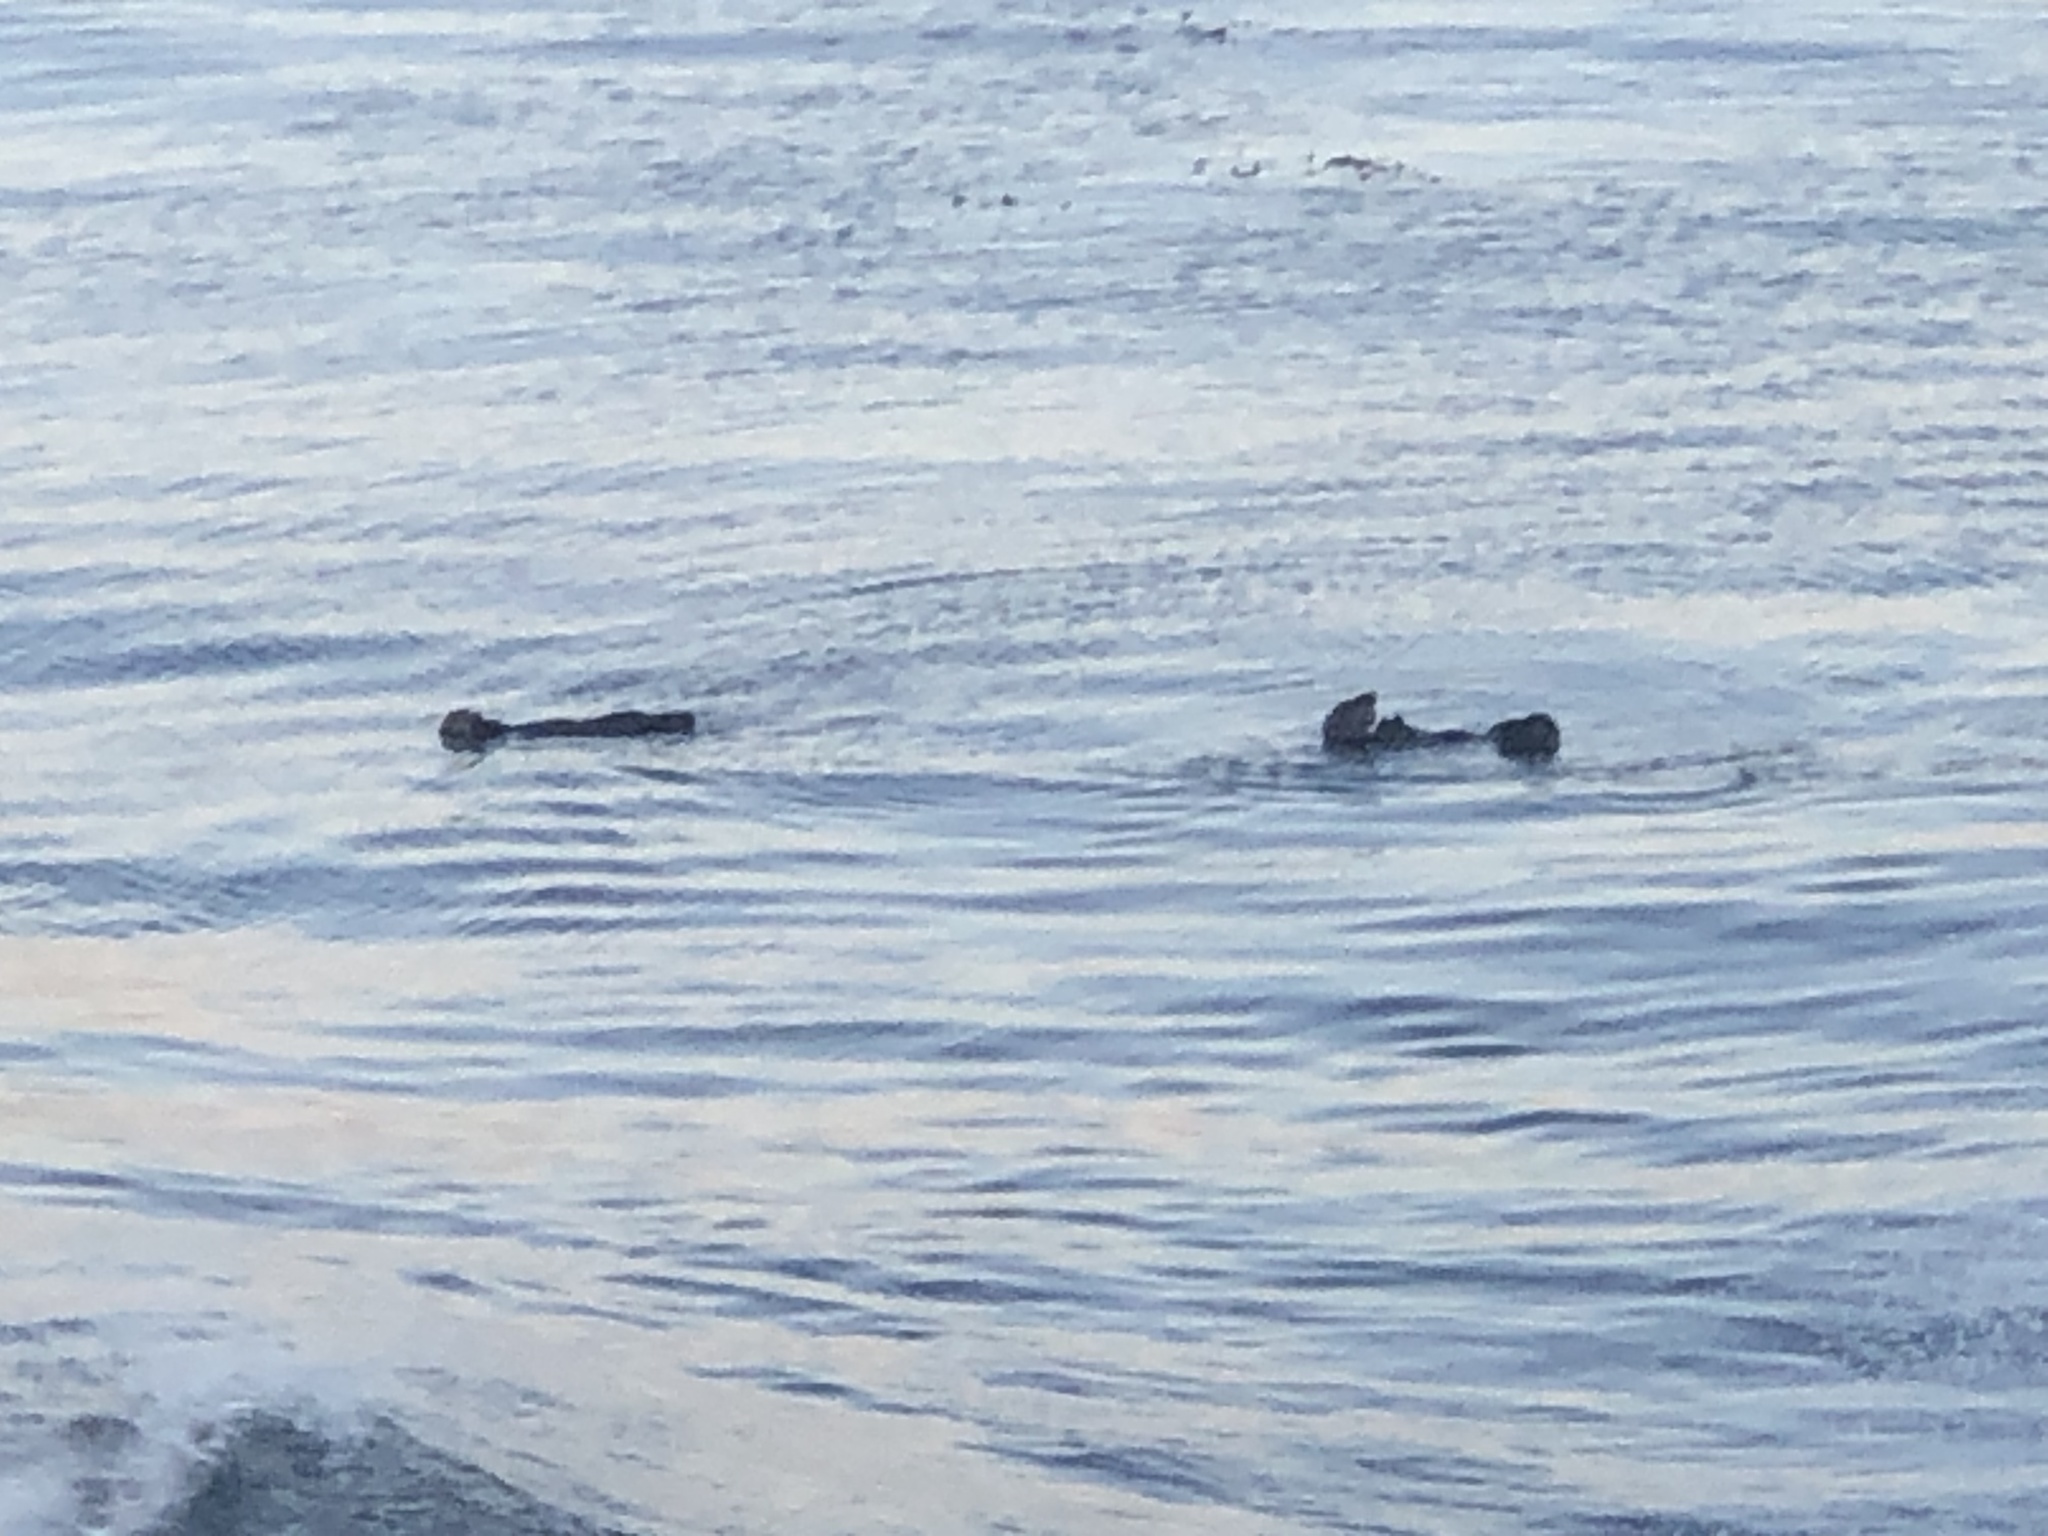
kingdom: Animalia
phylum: Chordata
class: Mammalia
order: Carnivora
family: Mustelidae
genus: Enhydra
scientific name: Enhydra lutris
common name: Sea otter
